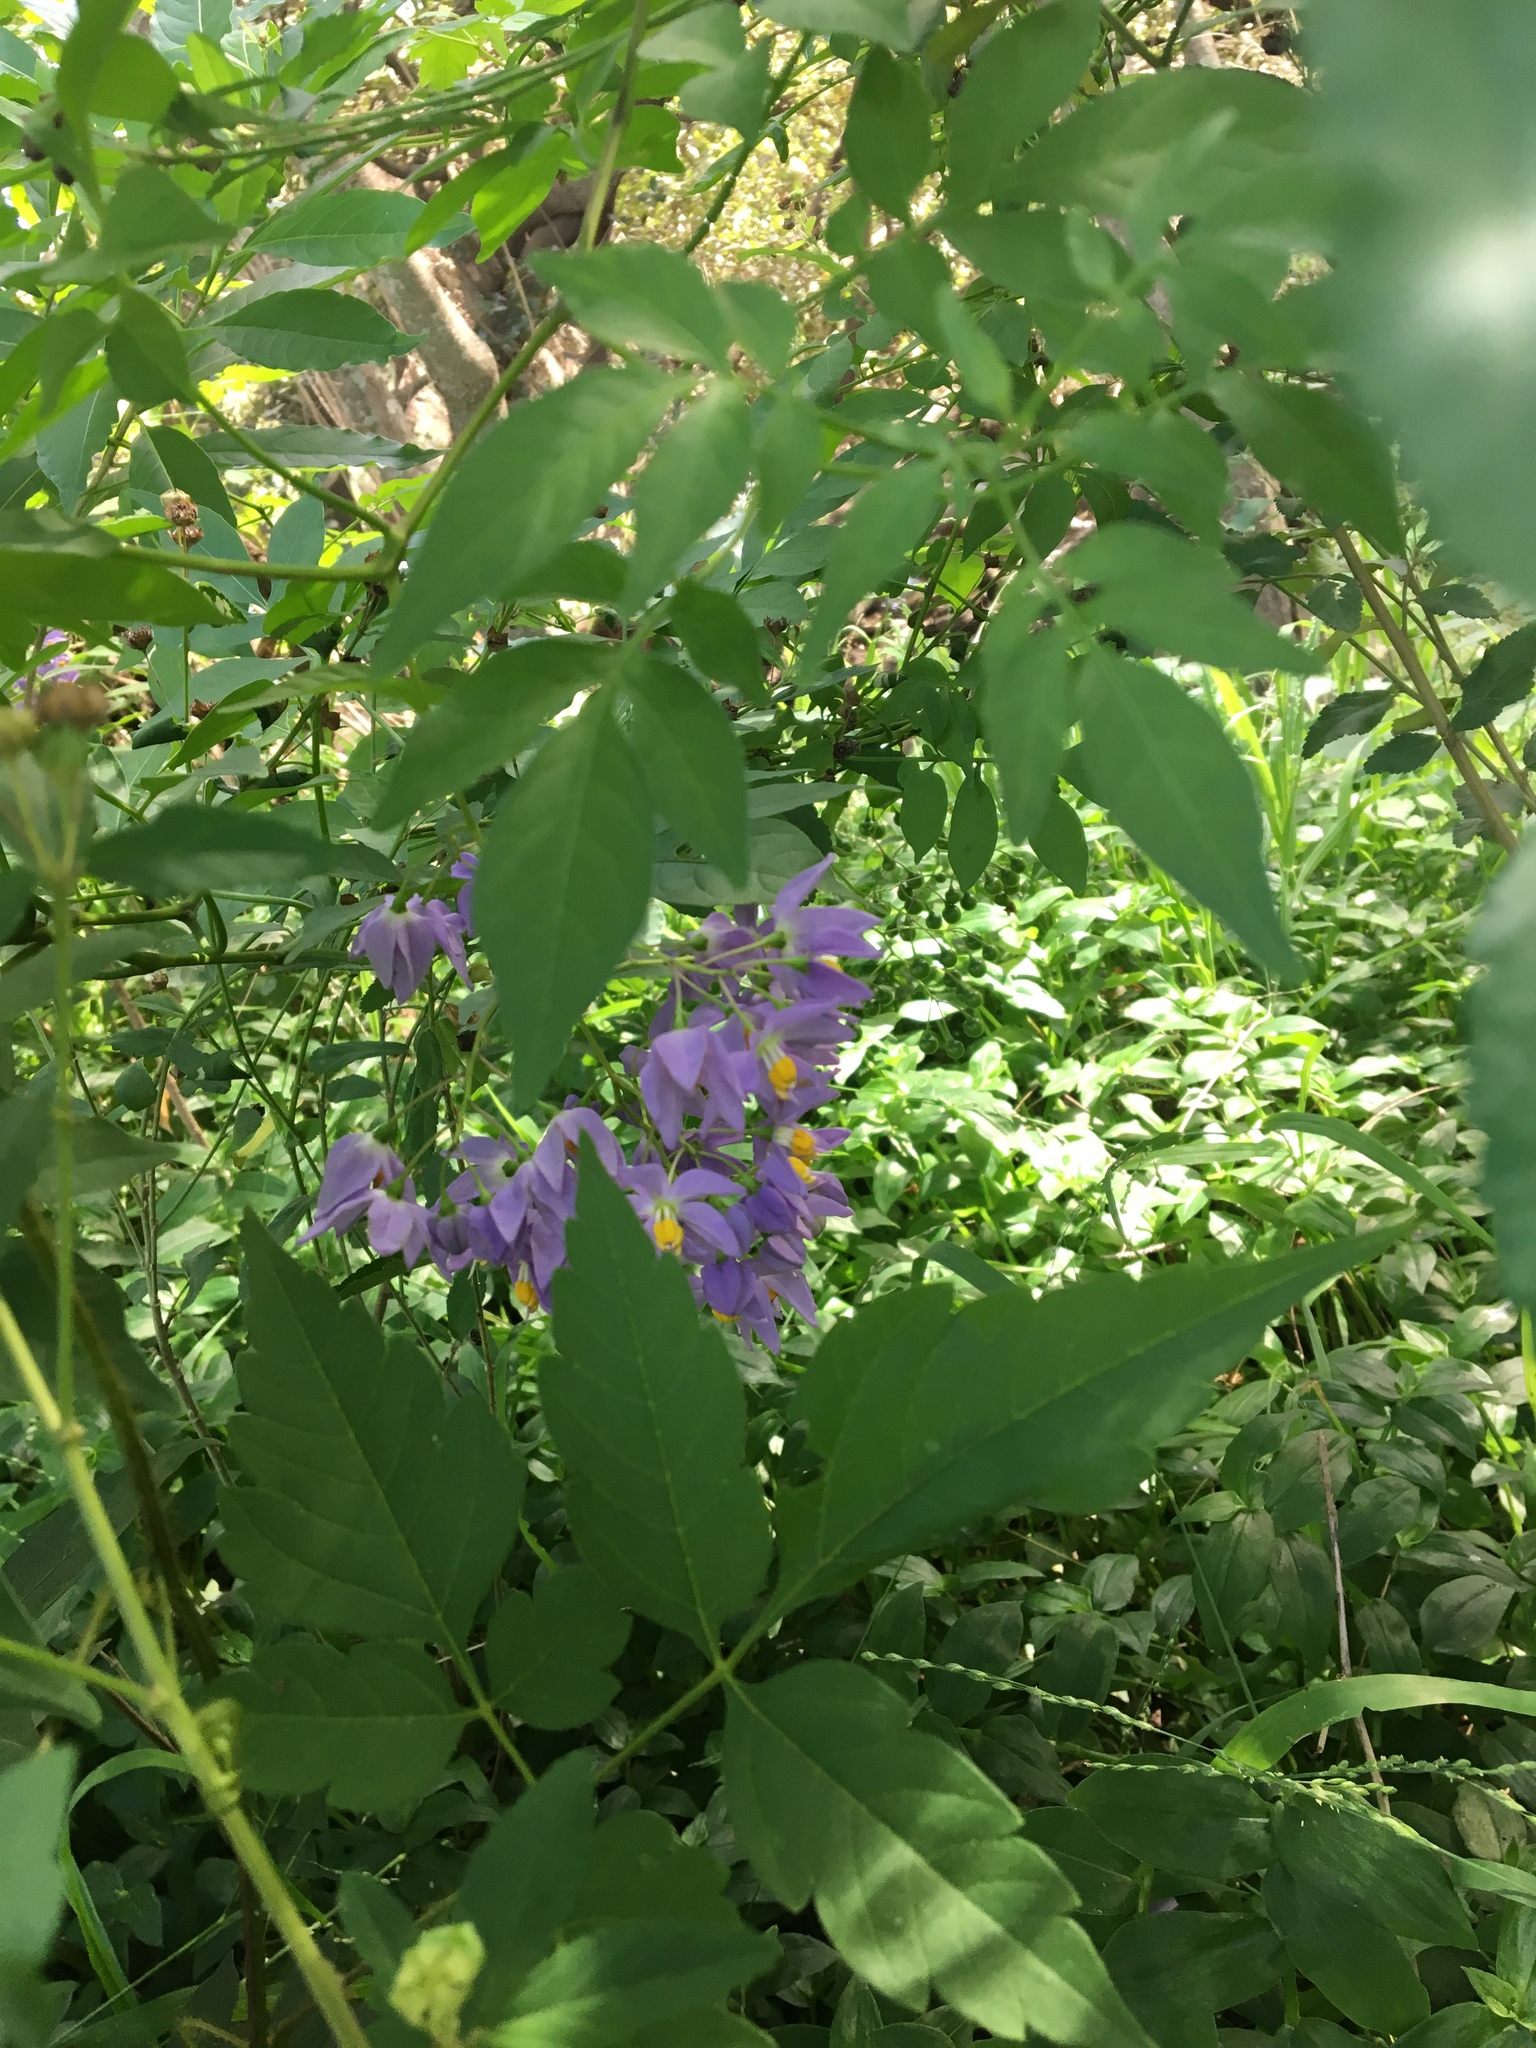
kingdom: Plantae
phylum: Tracheophyta
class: Magnoliopsida
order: Solanales
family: Solanaceae
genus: Solanum
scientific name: Solanum seaforthianum
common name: Brazilian nightshade
